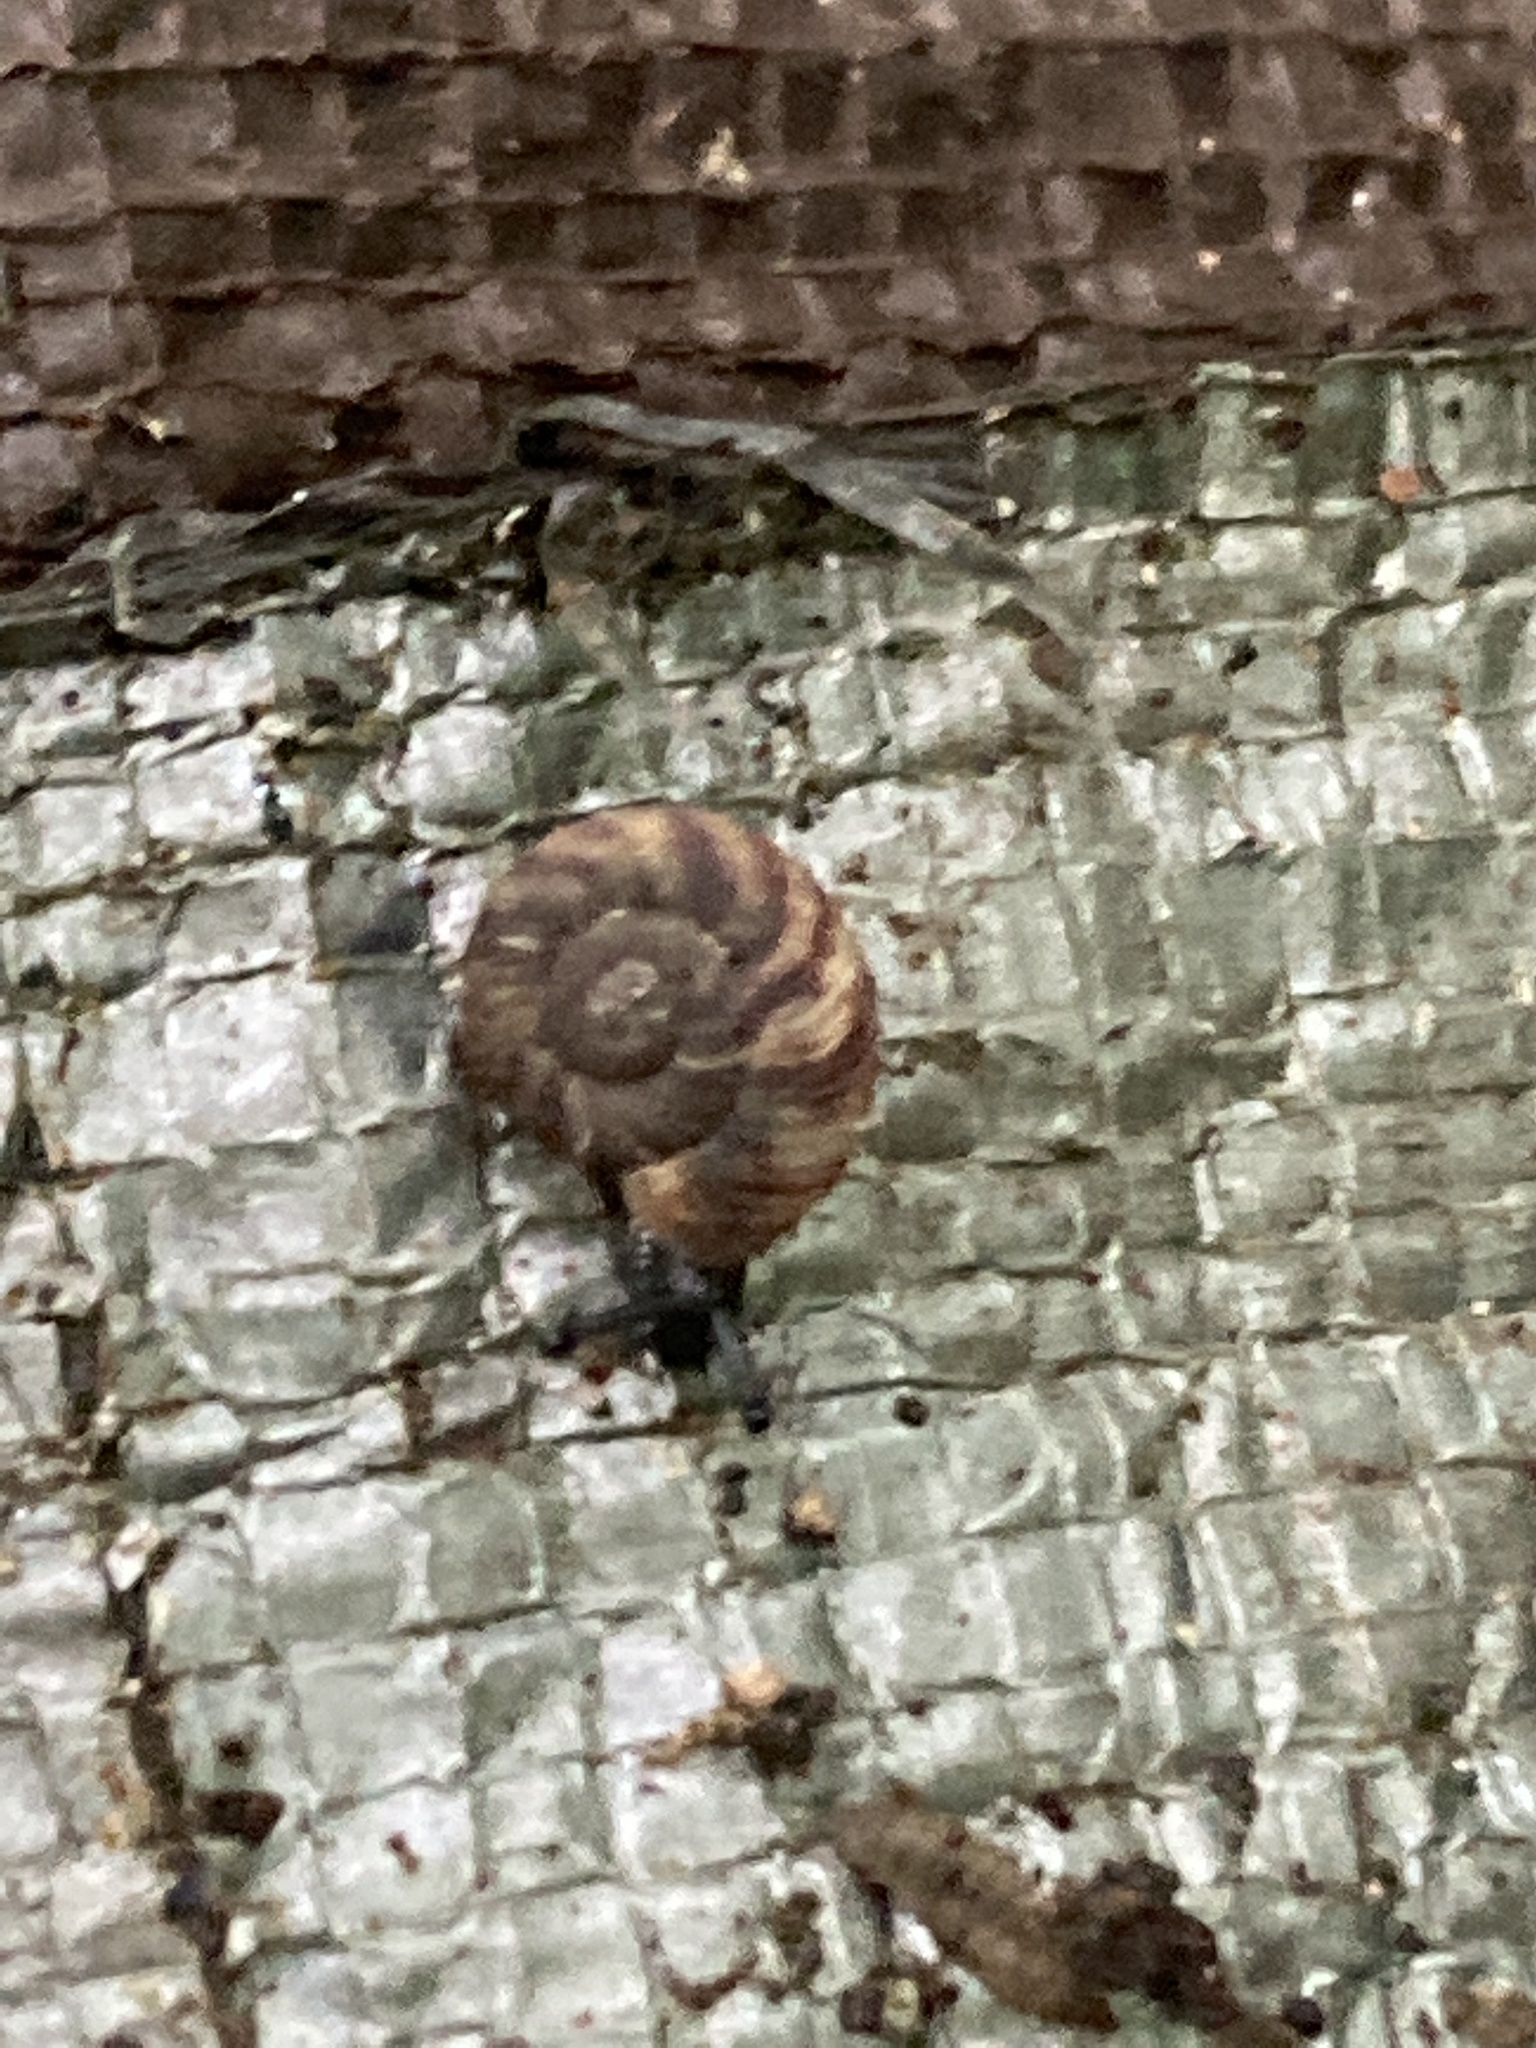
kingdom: Animalia
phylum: Mollusca
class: Gastropoda
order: Stylommatophora
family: Discidae
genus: Anguispira
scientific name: Anguispira alternata
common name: Flamed tigersnail
